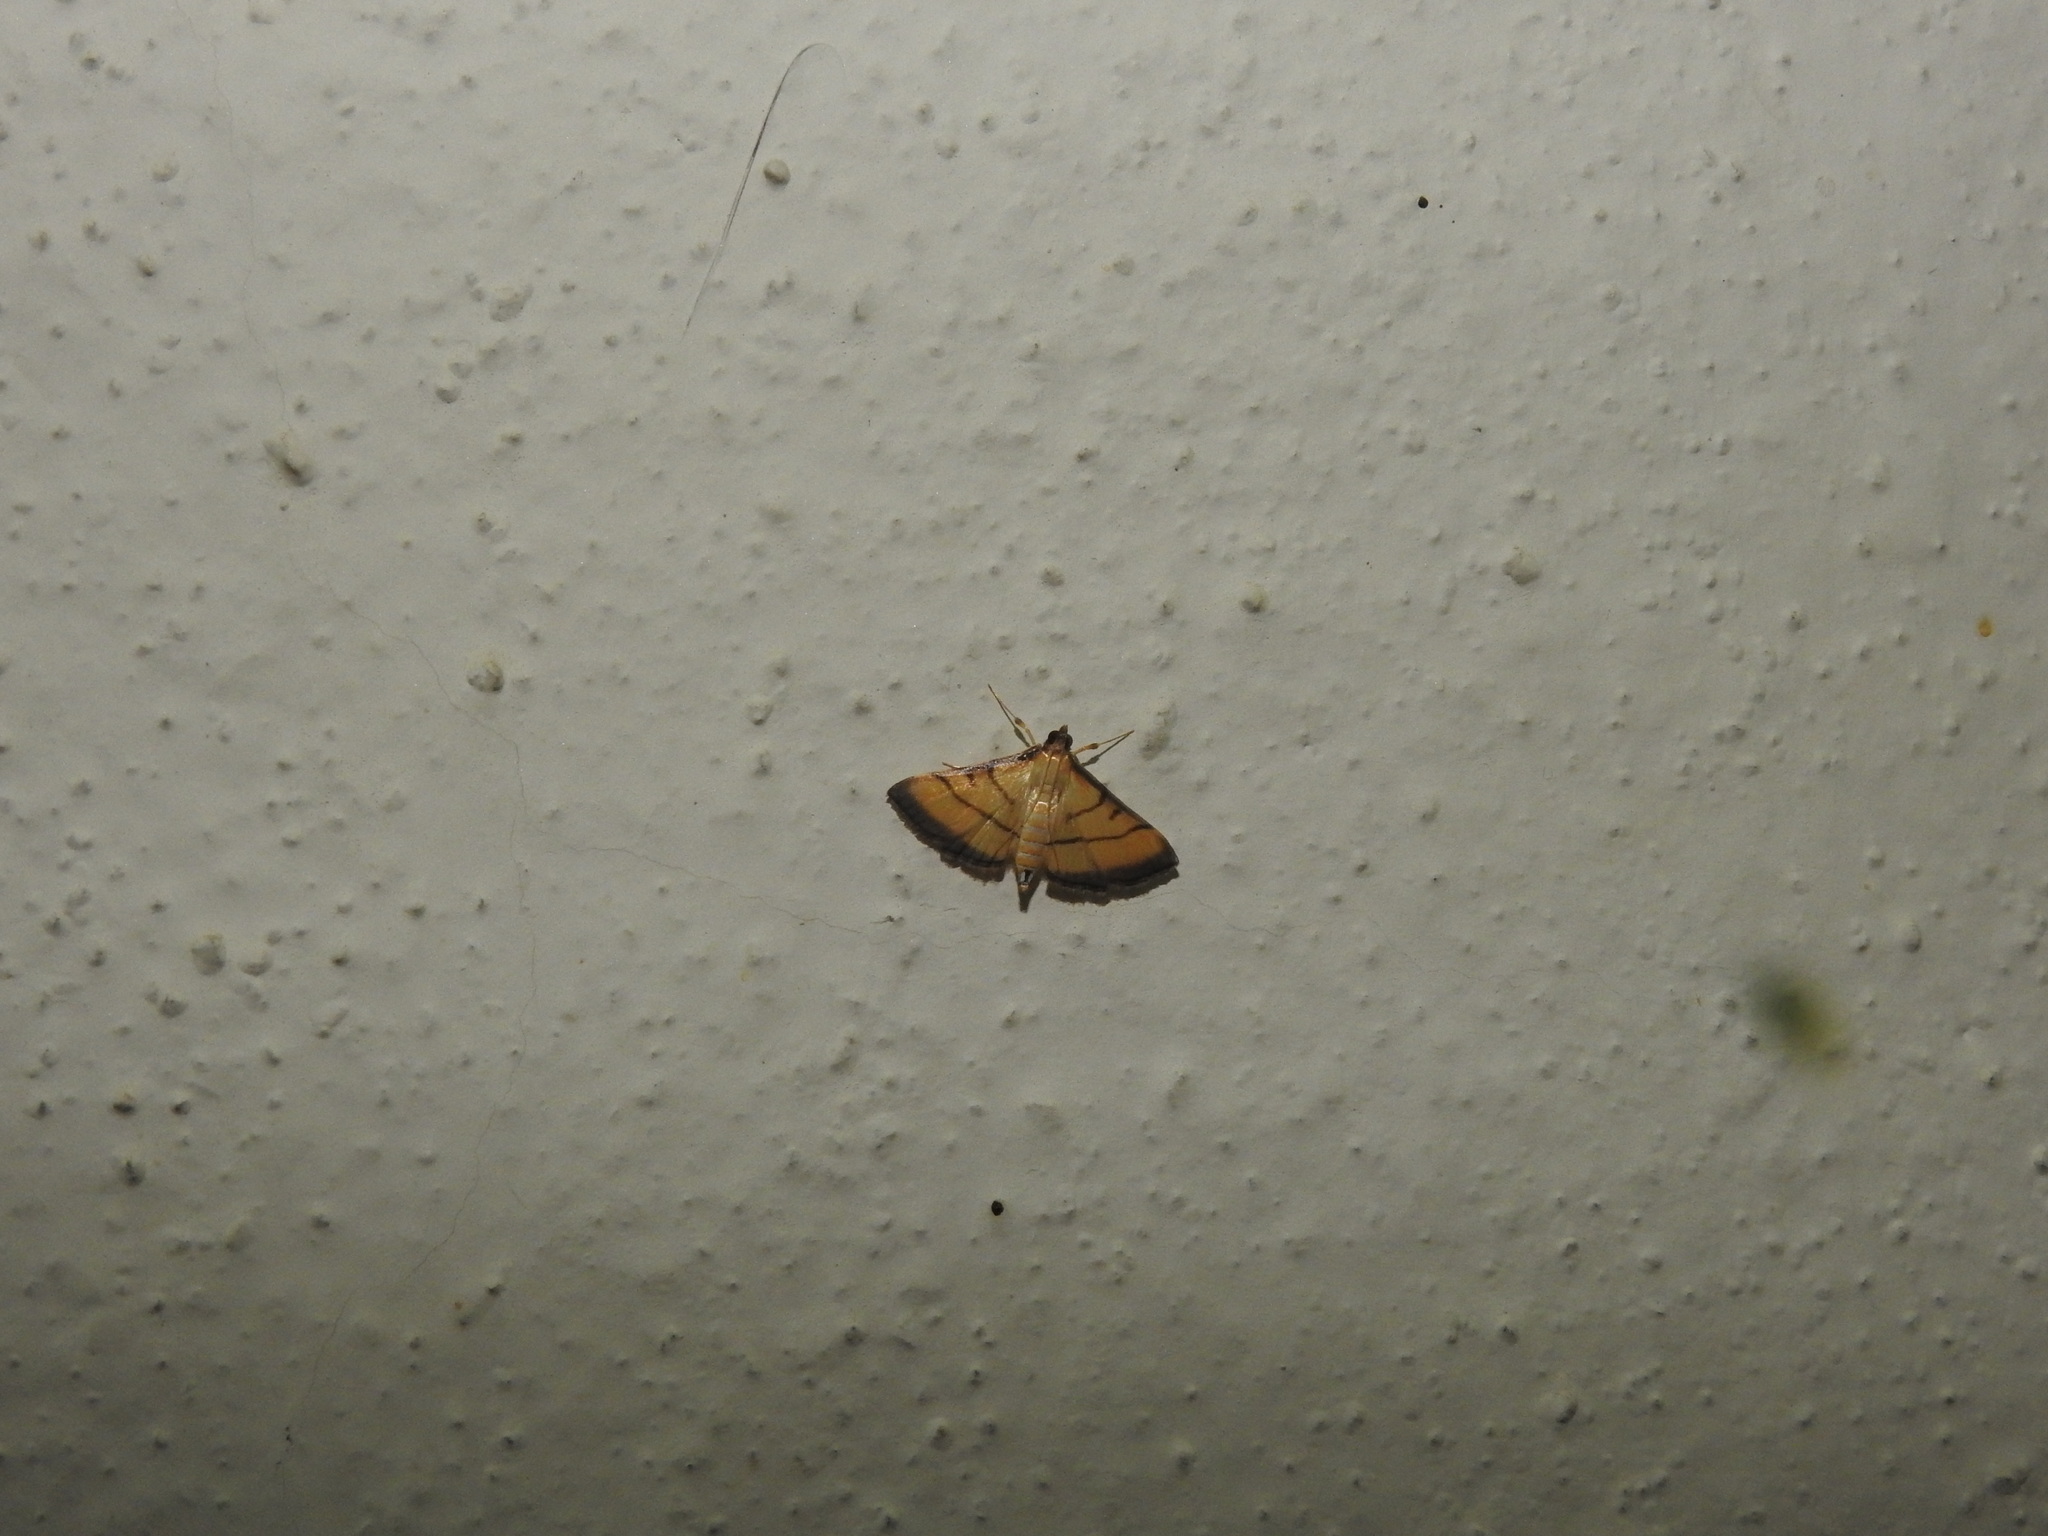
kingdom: Animalia
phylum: Arthropoda
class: Insecta
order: Lepidoptera
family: Crambidae
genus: Cnaphalocrocis
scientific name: Cnaphalocrocis medinalis
